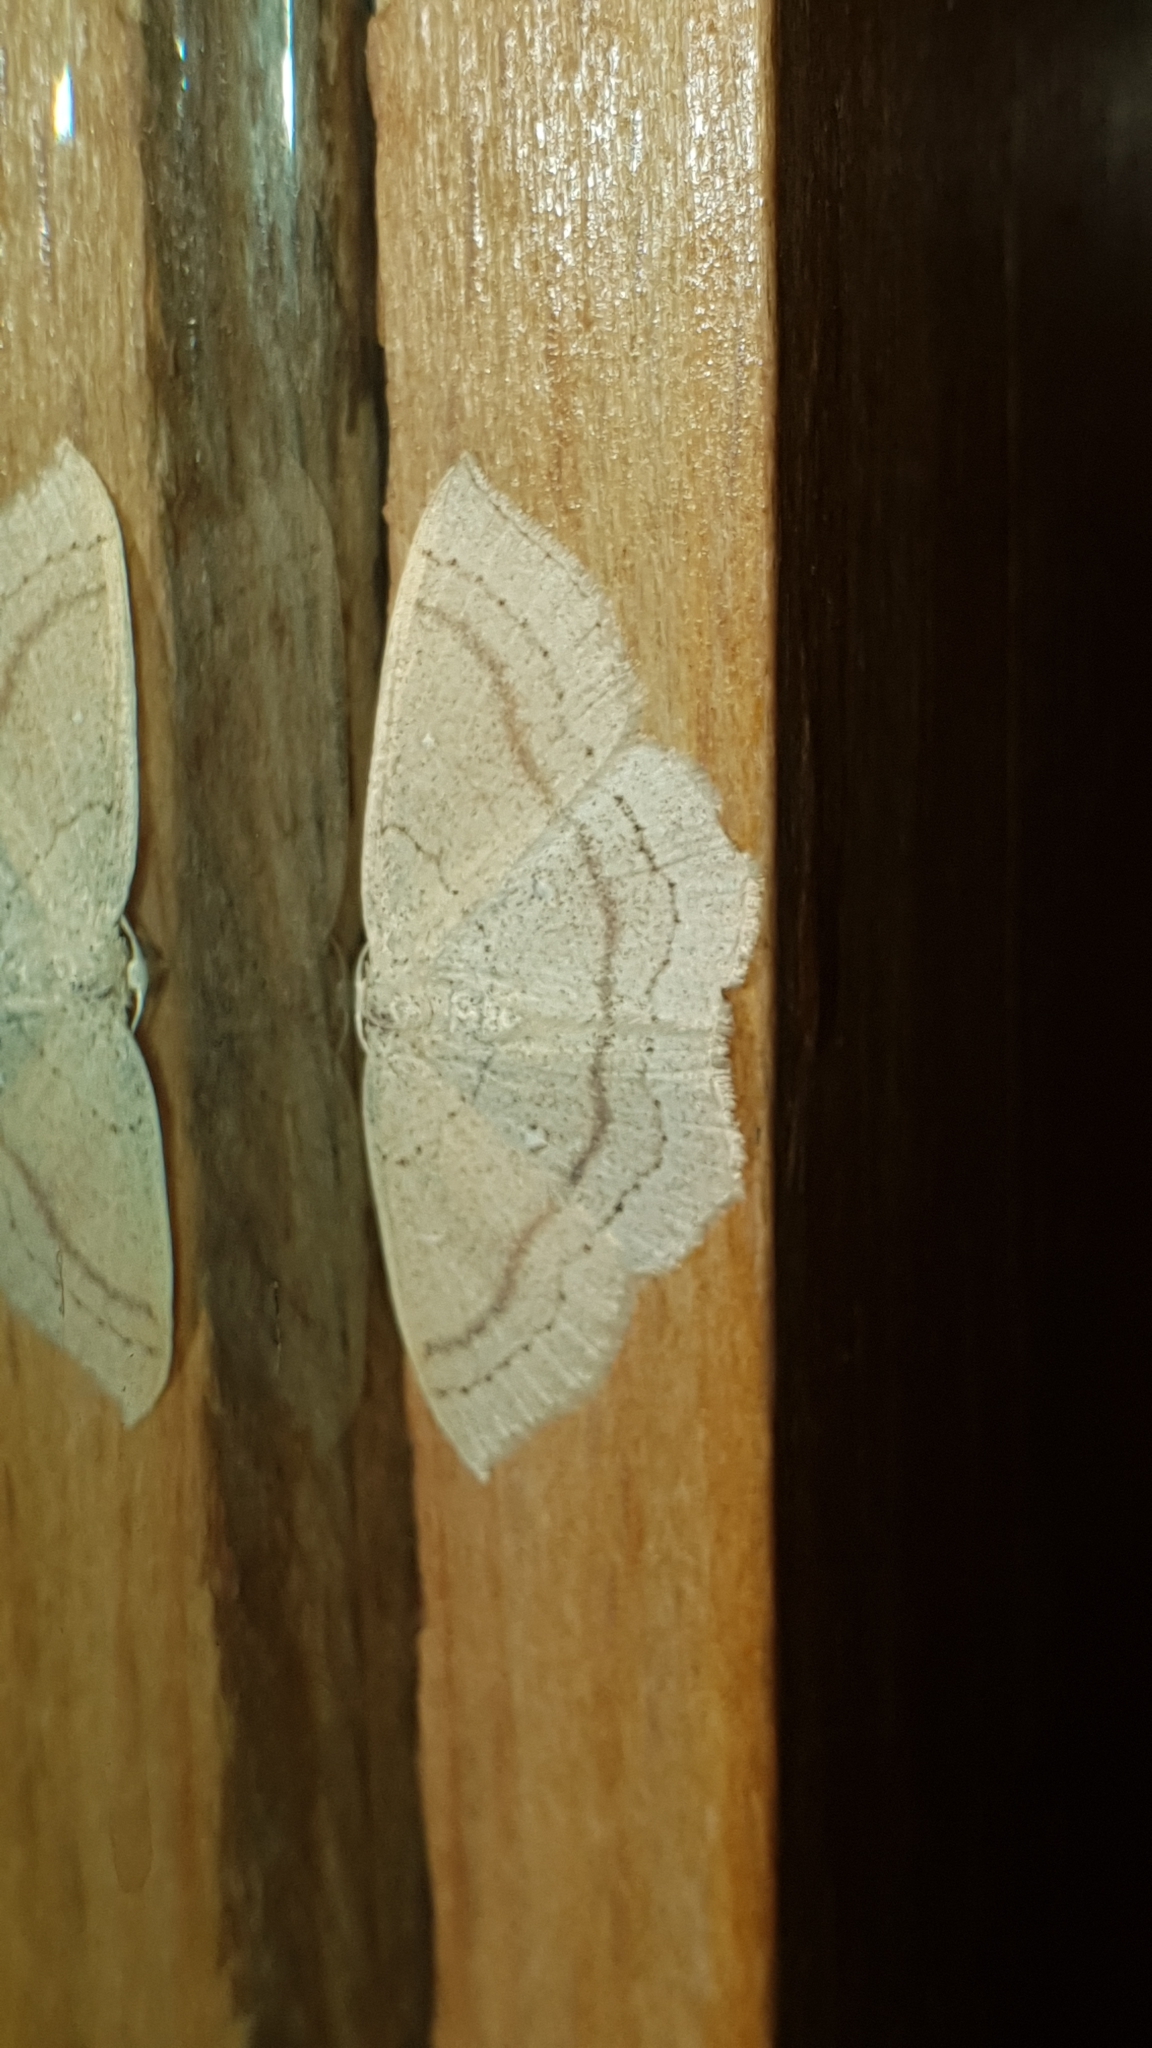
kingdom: Animalia
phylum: Arthropoda
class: Insecta
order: Lepidoptera
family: Geometridae
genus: Cyclophora
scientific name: Cyclophora linearia
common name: Clay triple-lines
